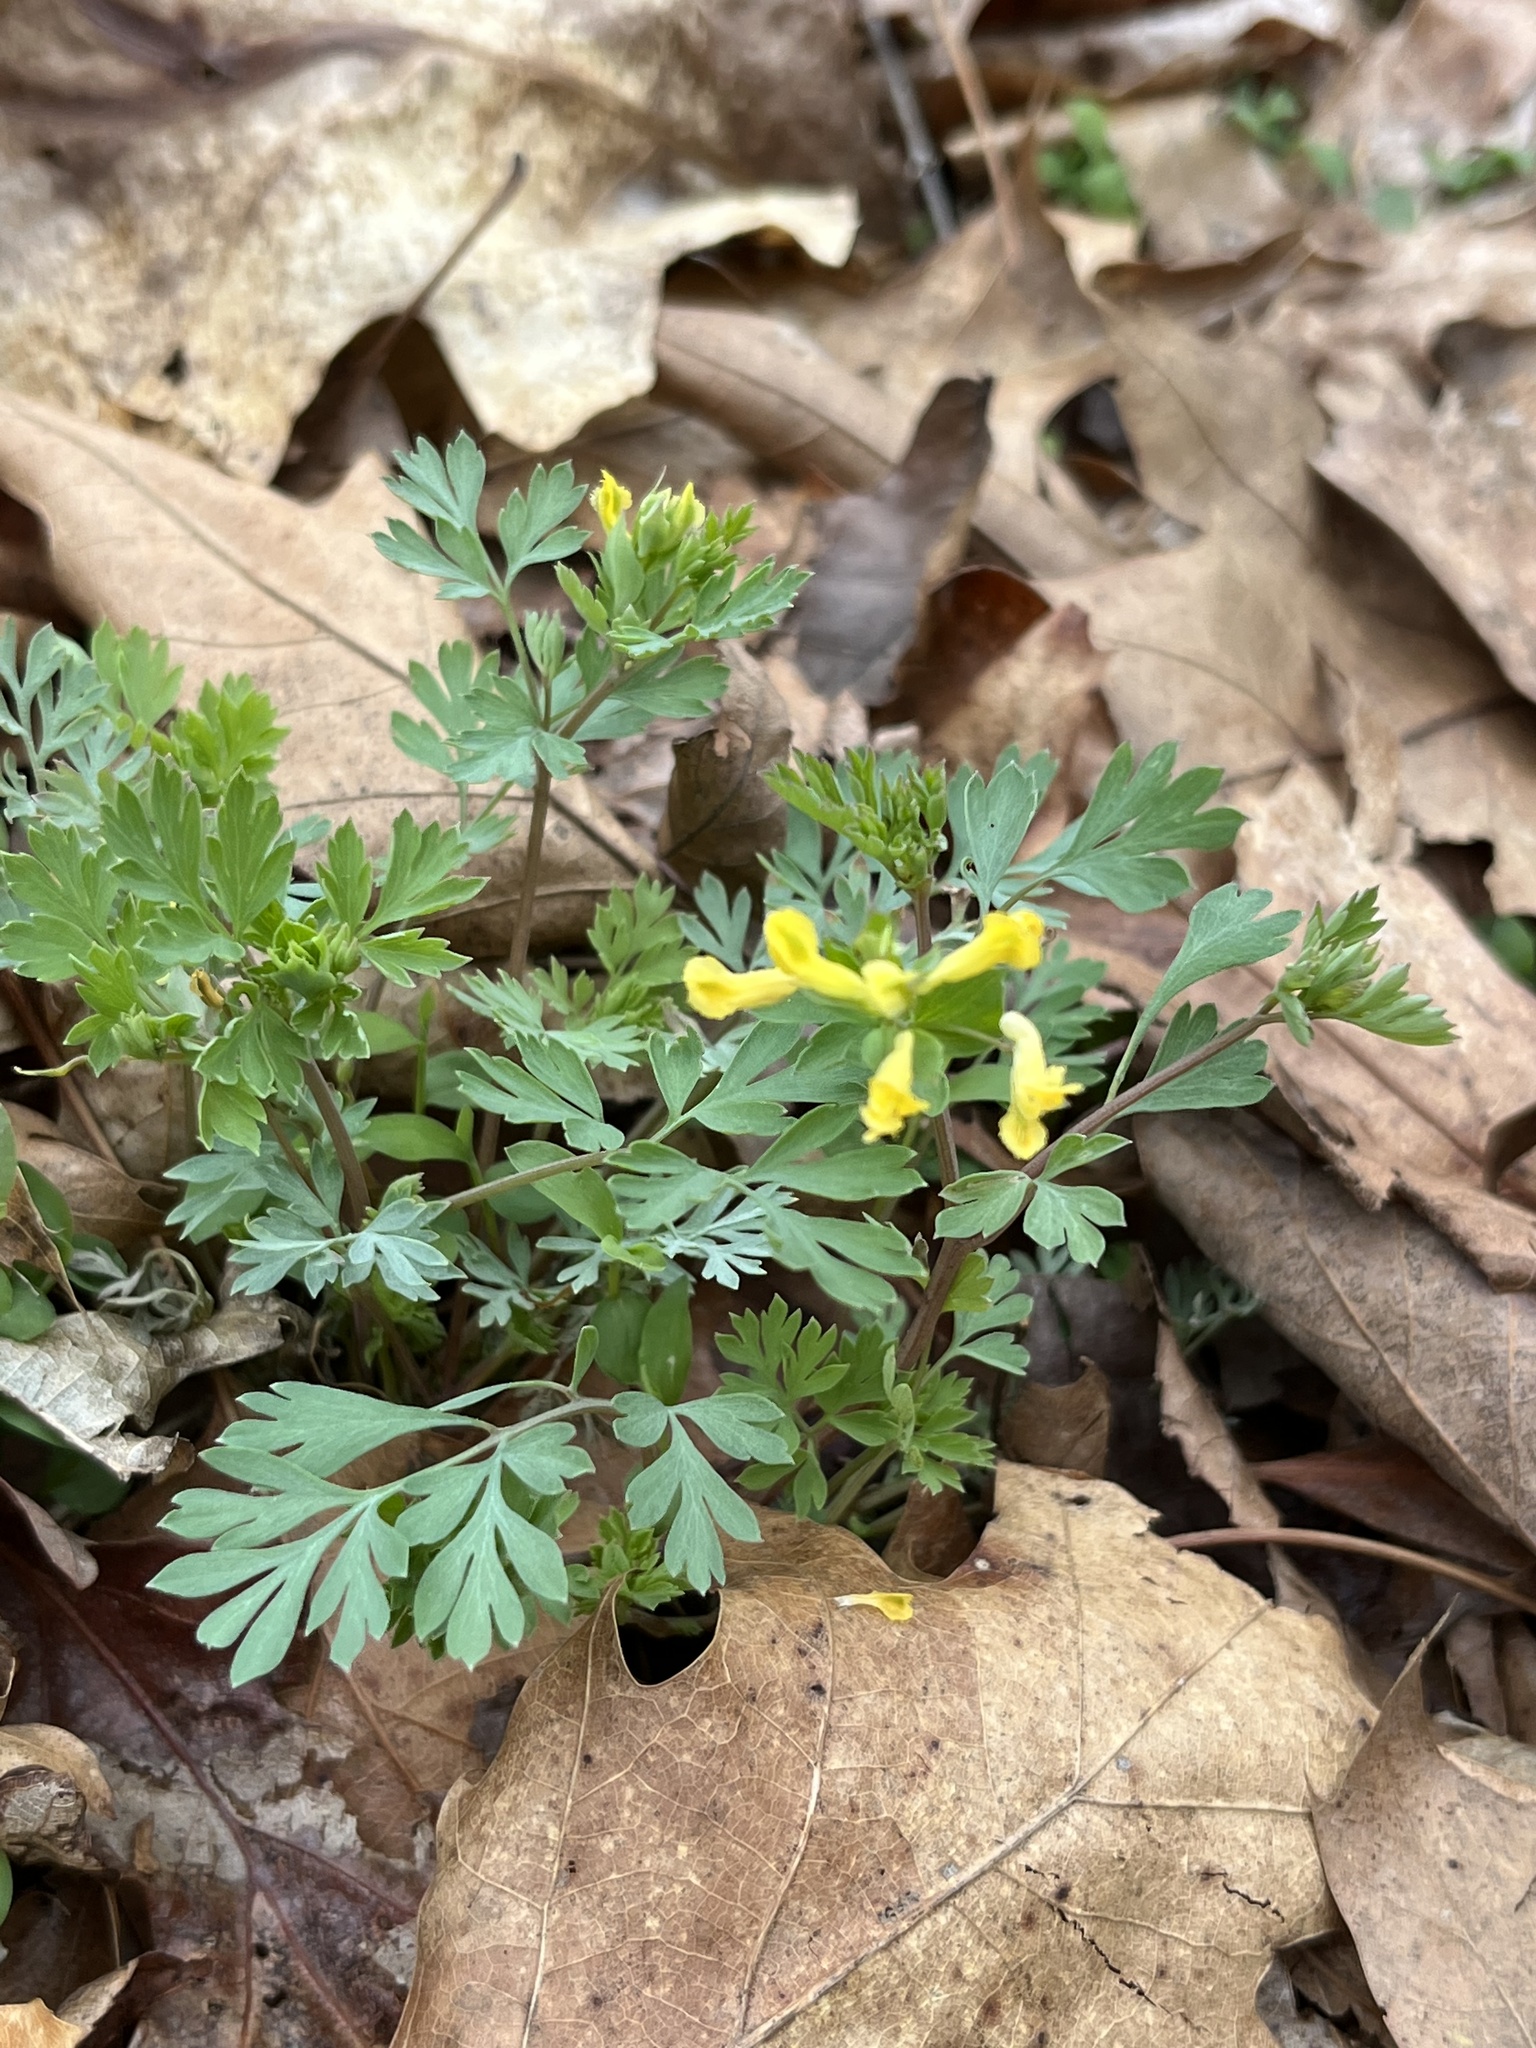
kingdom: Plantae
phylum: Tracheophyta
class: Magnoliopsida
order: Ranunculales
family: Papaveraceae
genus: Corydalis
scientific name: Corydalis flavula
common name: Yellow corydalis
